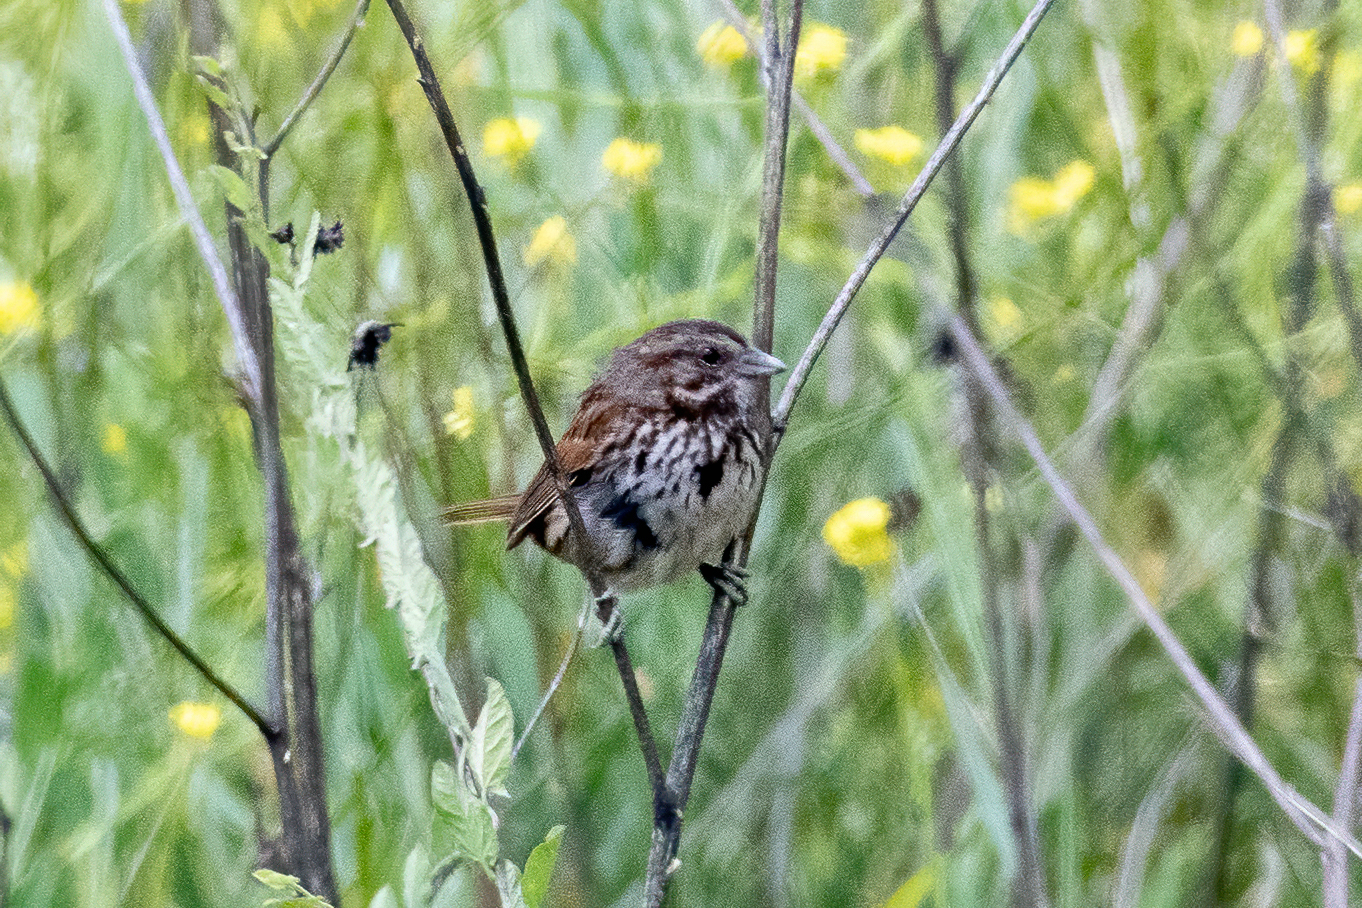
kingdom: Animalia
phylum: Chordata
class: Aves
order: Passeriformes
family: Passerellidae
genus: Melospiza
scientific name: Melospiza melodia
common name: Song sparrow
